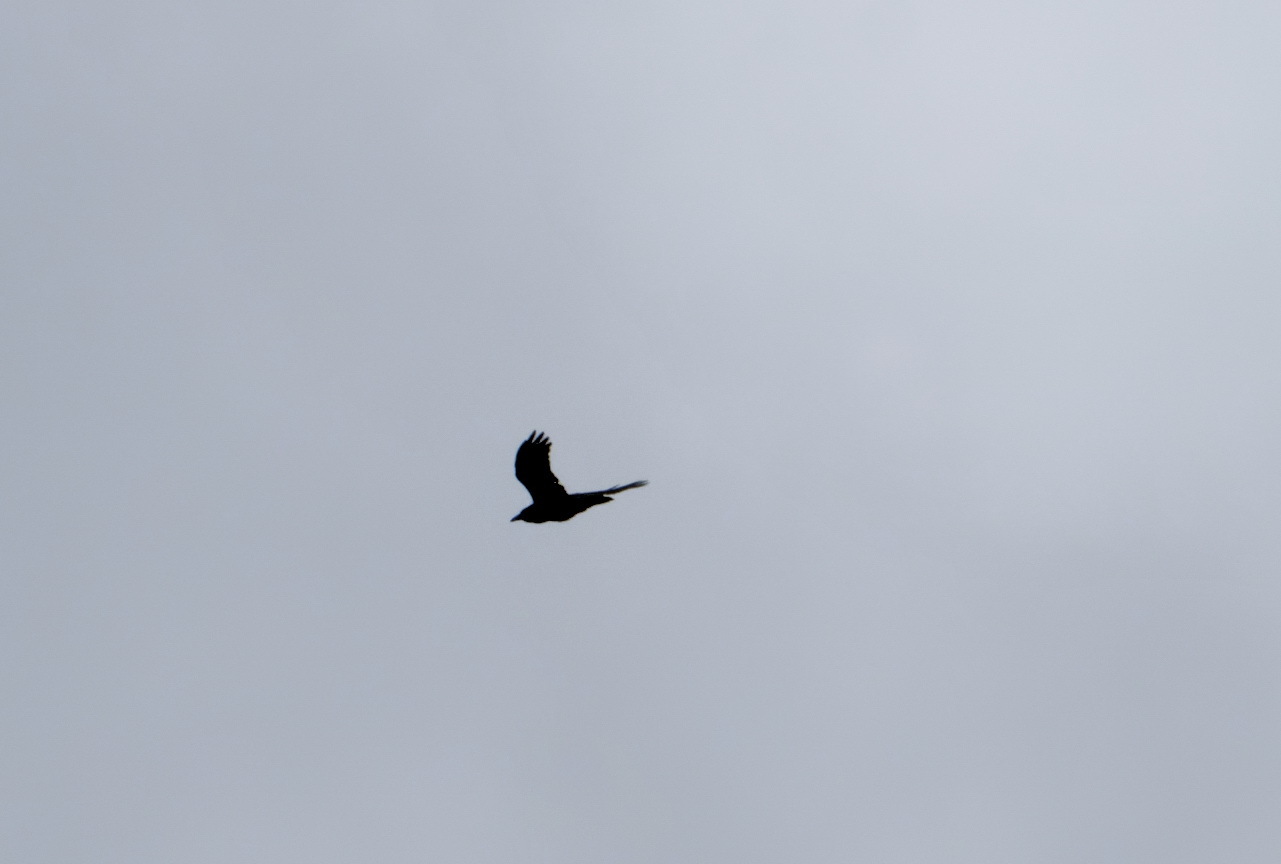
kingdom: Animalia
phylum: Chordata
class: Aves
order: Passeriformes
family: Corvidae
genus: Corvus
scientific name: Corvus corax
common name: Common raven
